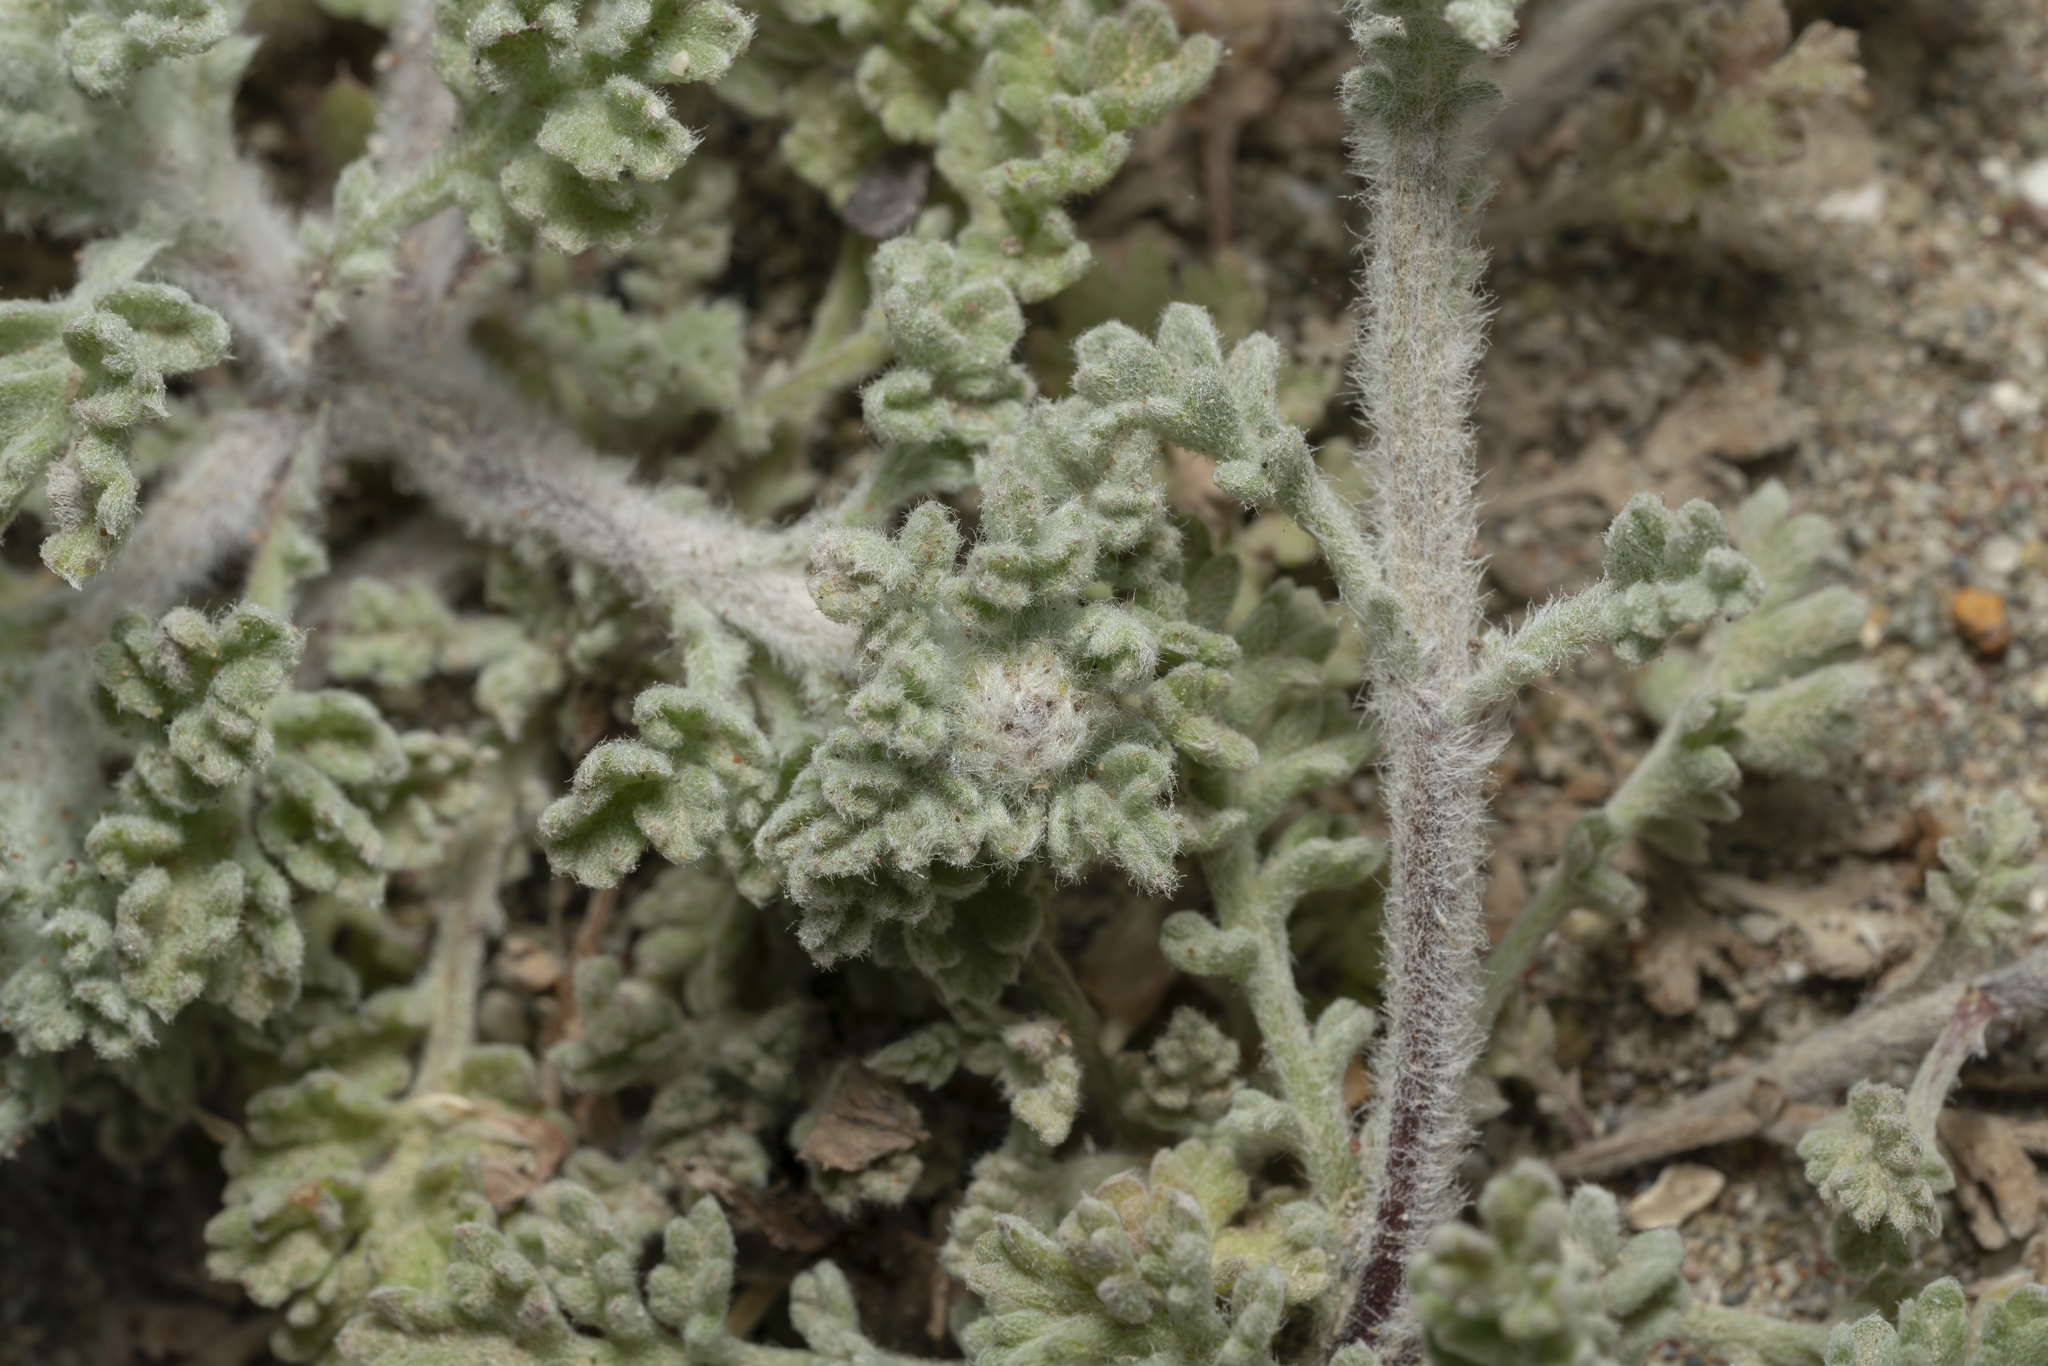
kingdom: Plantae
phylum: Tracheophyta
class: Magnoliopsida
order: Asterales
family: Asteraceae
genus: Anthemis
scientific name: Anthemis tomentosa
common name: Woolly chamomile
